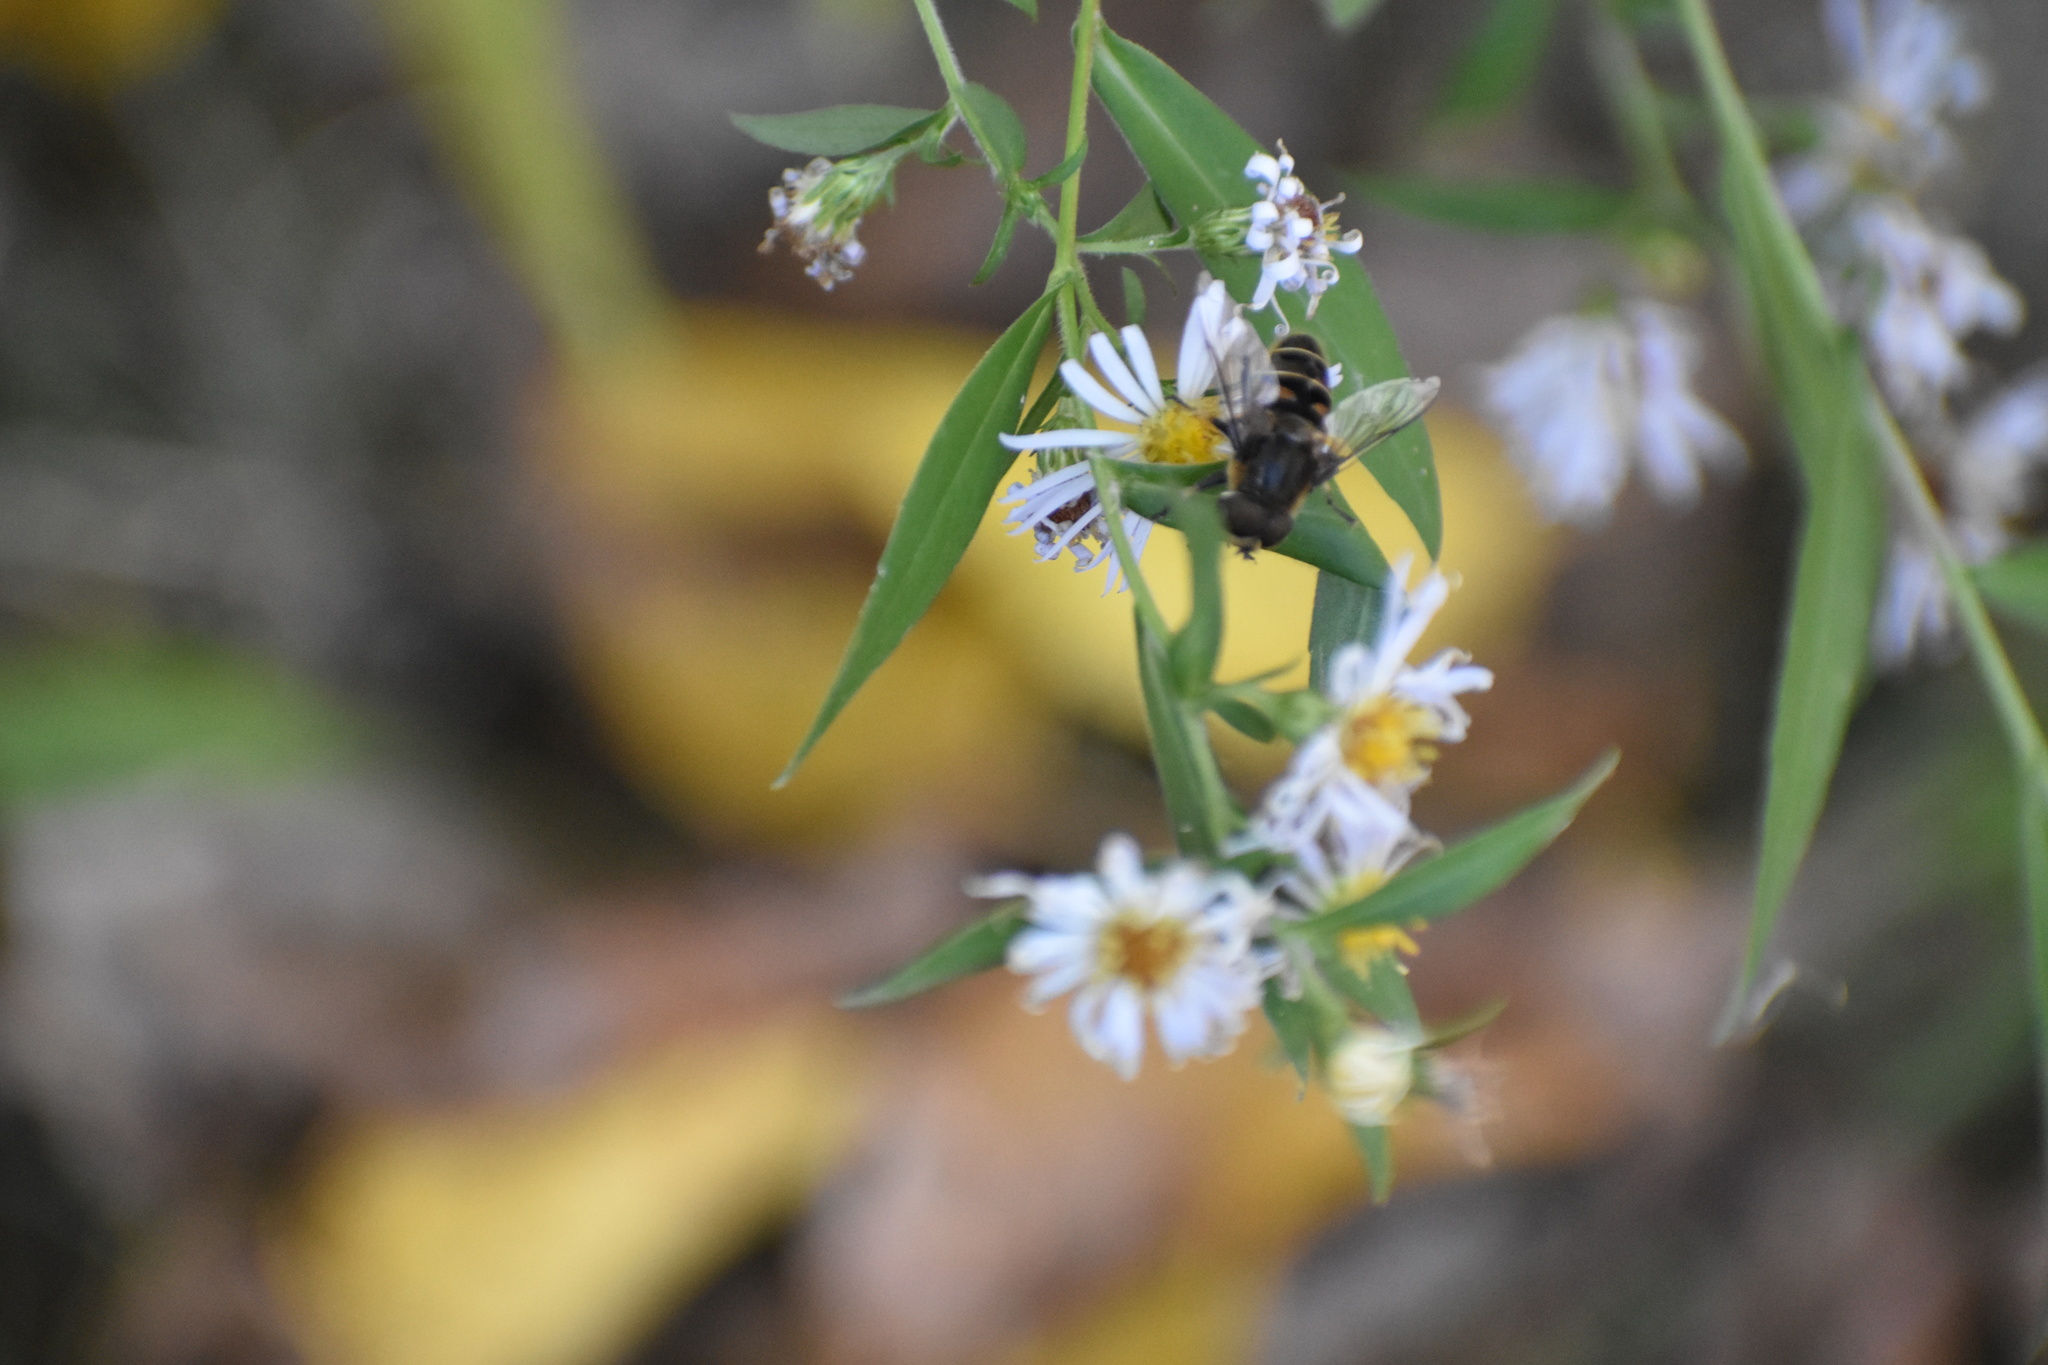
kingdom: Animalia
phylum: Arthropoda
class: Insecta
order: Diptera
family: Syrphidae
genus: Eristalis
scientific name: Eristalis dimidiata
